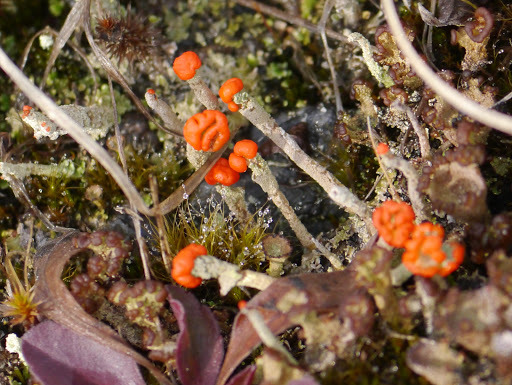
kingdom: Fungi
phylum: Ascomycota
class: Lecanoromycetes
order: Lecanorales
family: Cladoniaceae
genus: Cladonia
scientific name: Cladonia cristatella
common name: British soldier lichen
